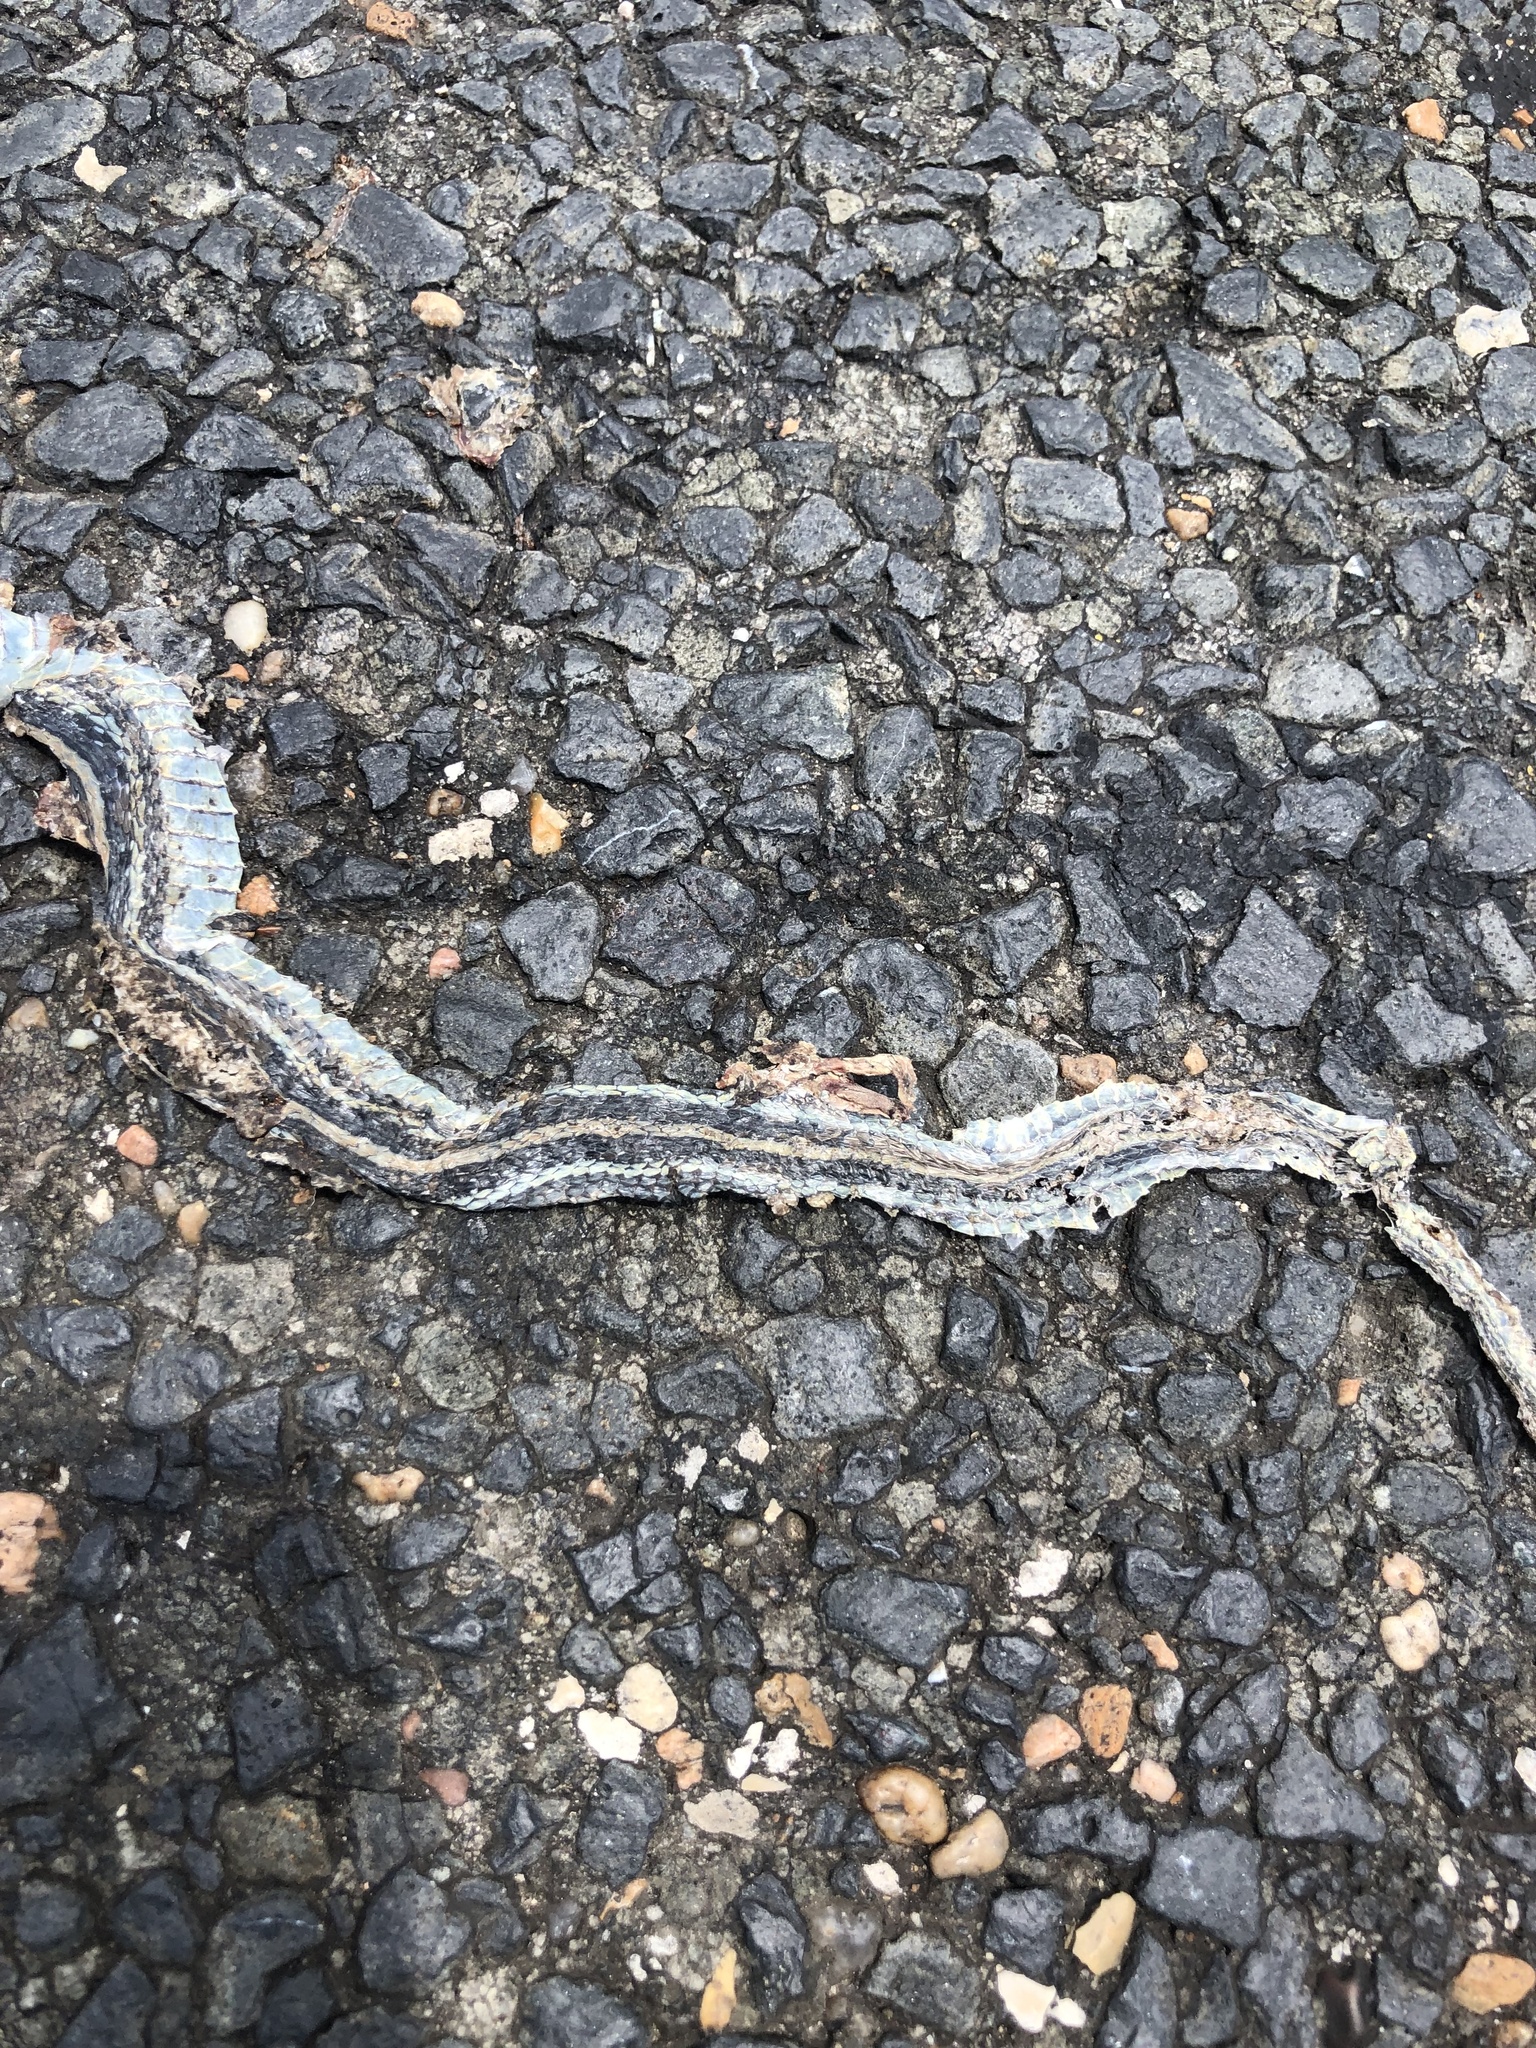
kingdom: Animalia
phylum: Chordata
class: Squamata
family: Colubridae
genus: Thamnophis
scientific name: Thamnophis proximus
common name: Western ribbon snake
